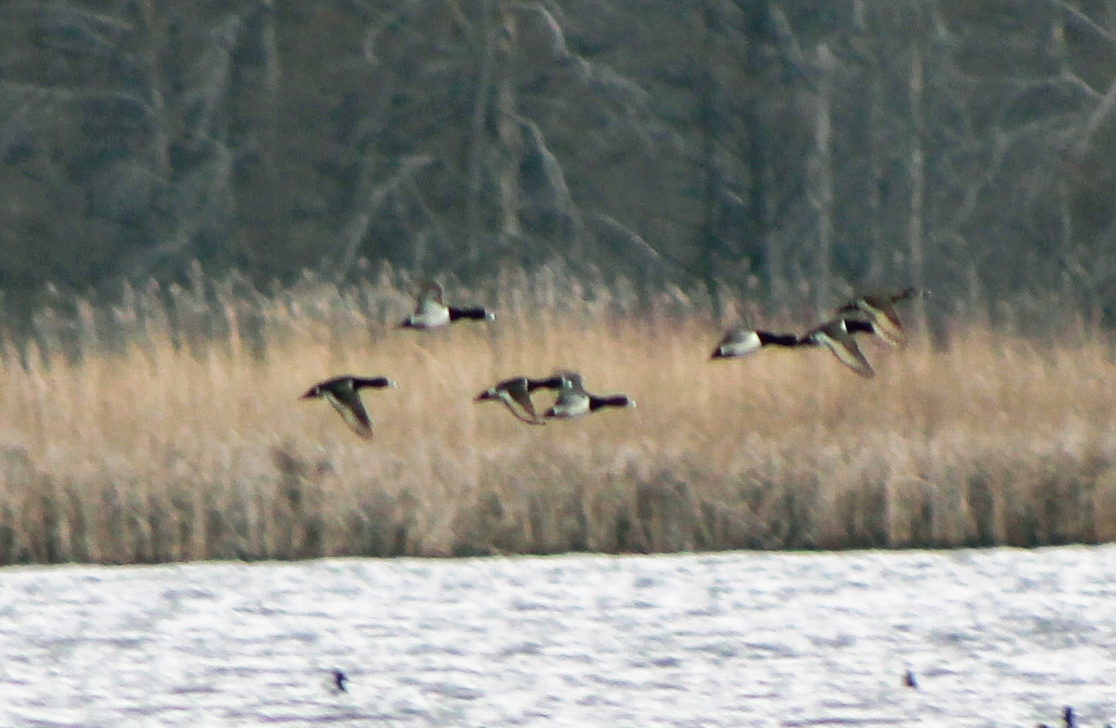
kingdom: Animalia
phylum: Chordata
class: Aves
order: Anseriformes
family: Anatidae
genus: Aythya
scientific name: Aythya collaris
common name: Ring-necked duck
